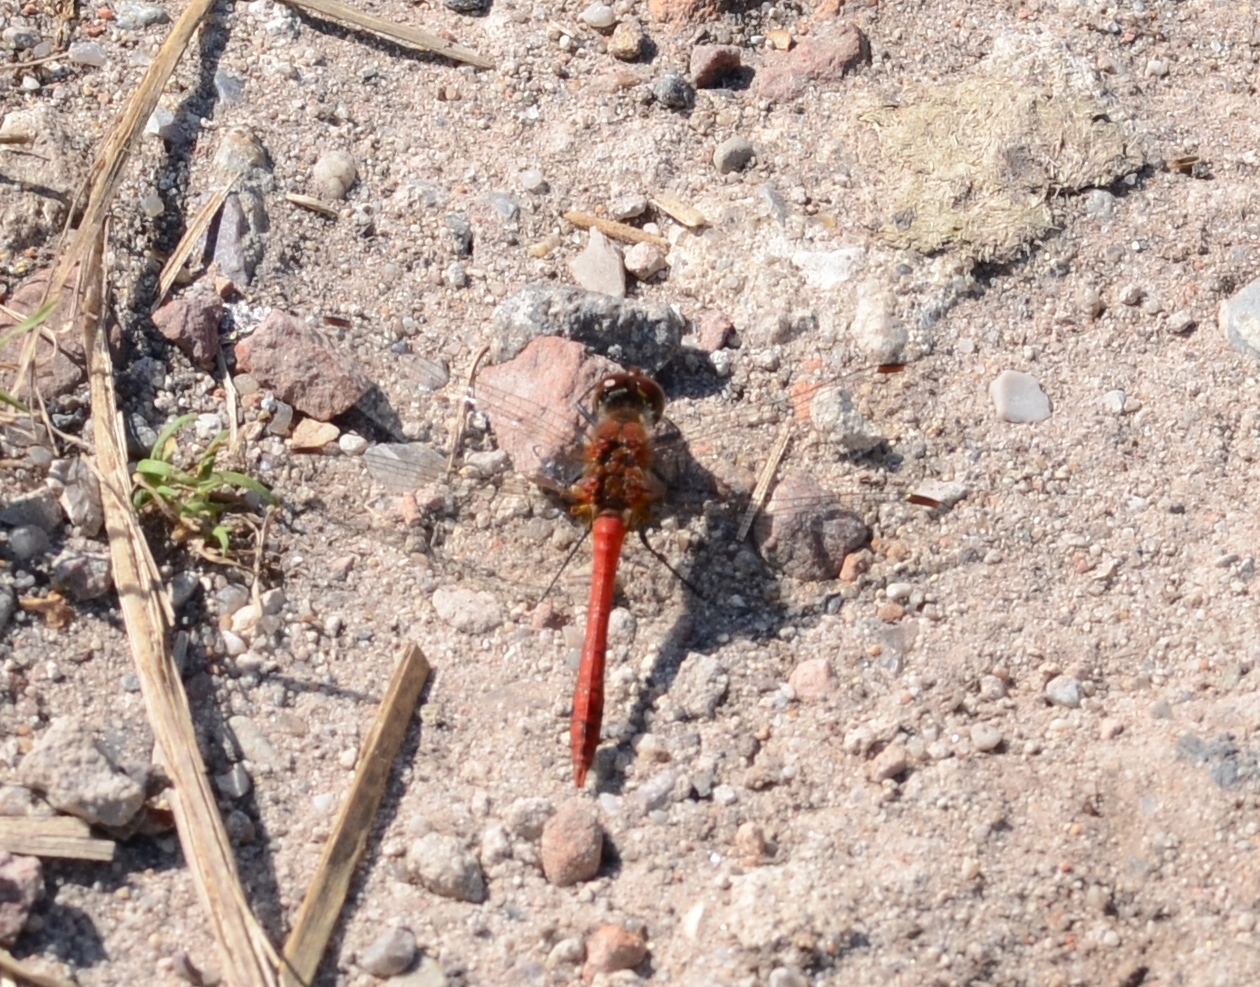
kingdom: Animalia
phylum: Arthropoda
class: Insecta
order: Odonata
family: Libellulidae
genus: Sympetrum
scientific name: Sympetrum sanguineum
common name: Ruddy darter
